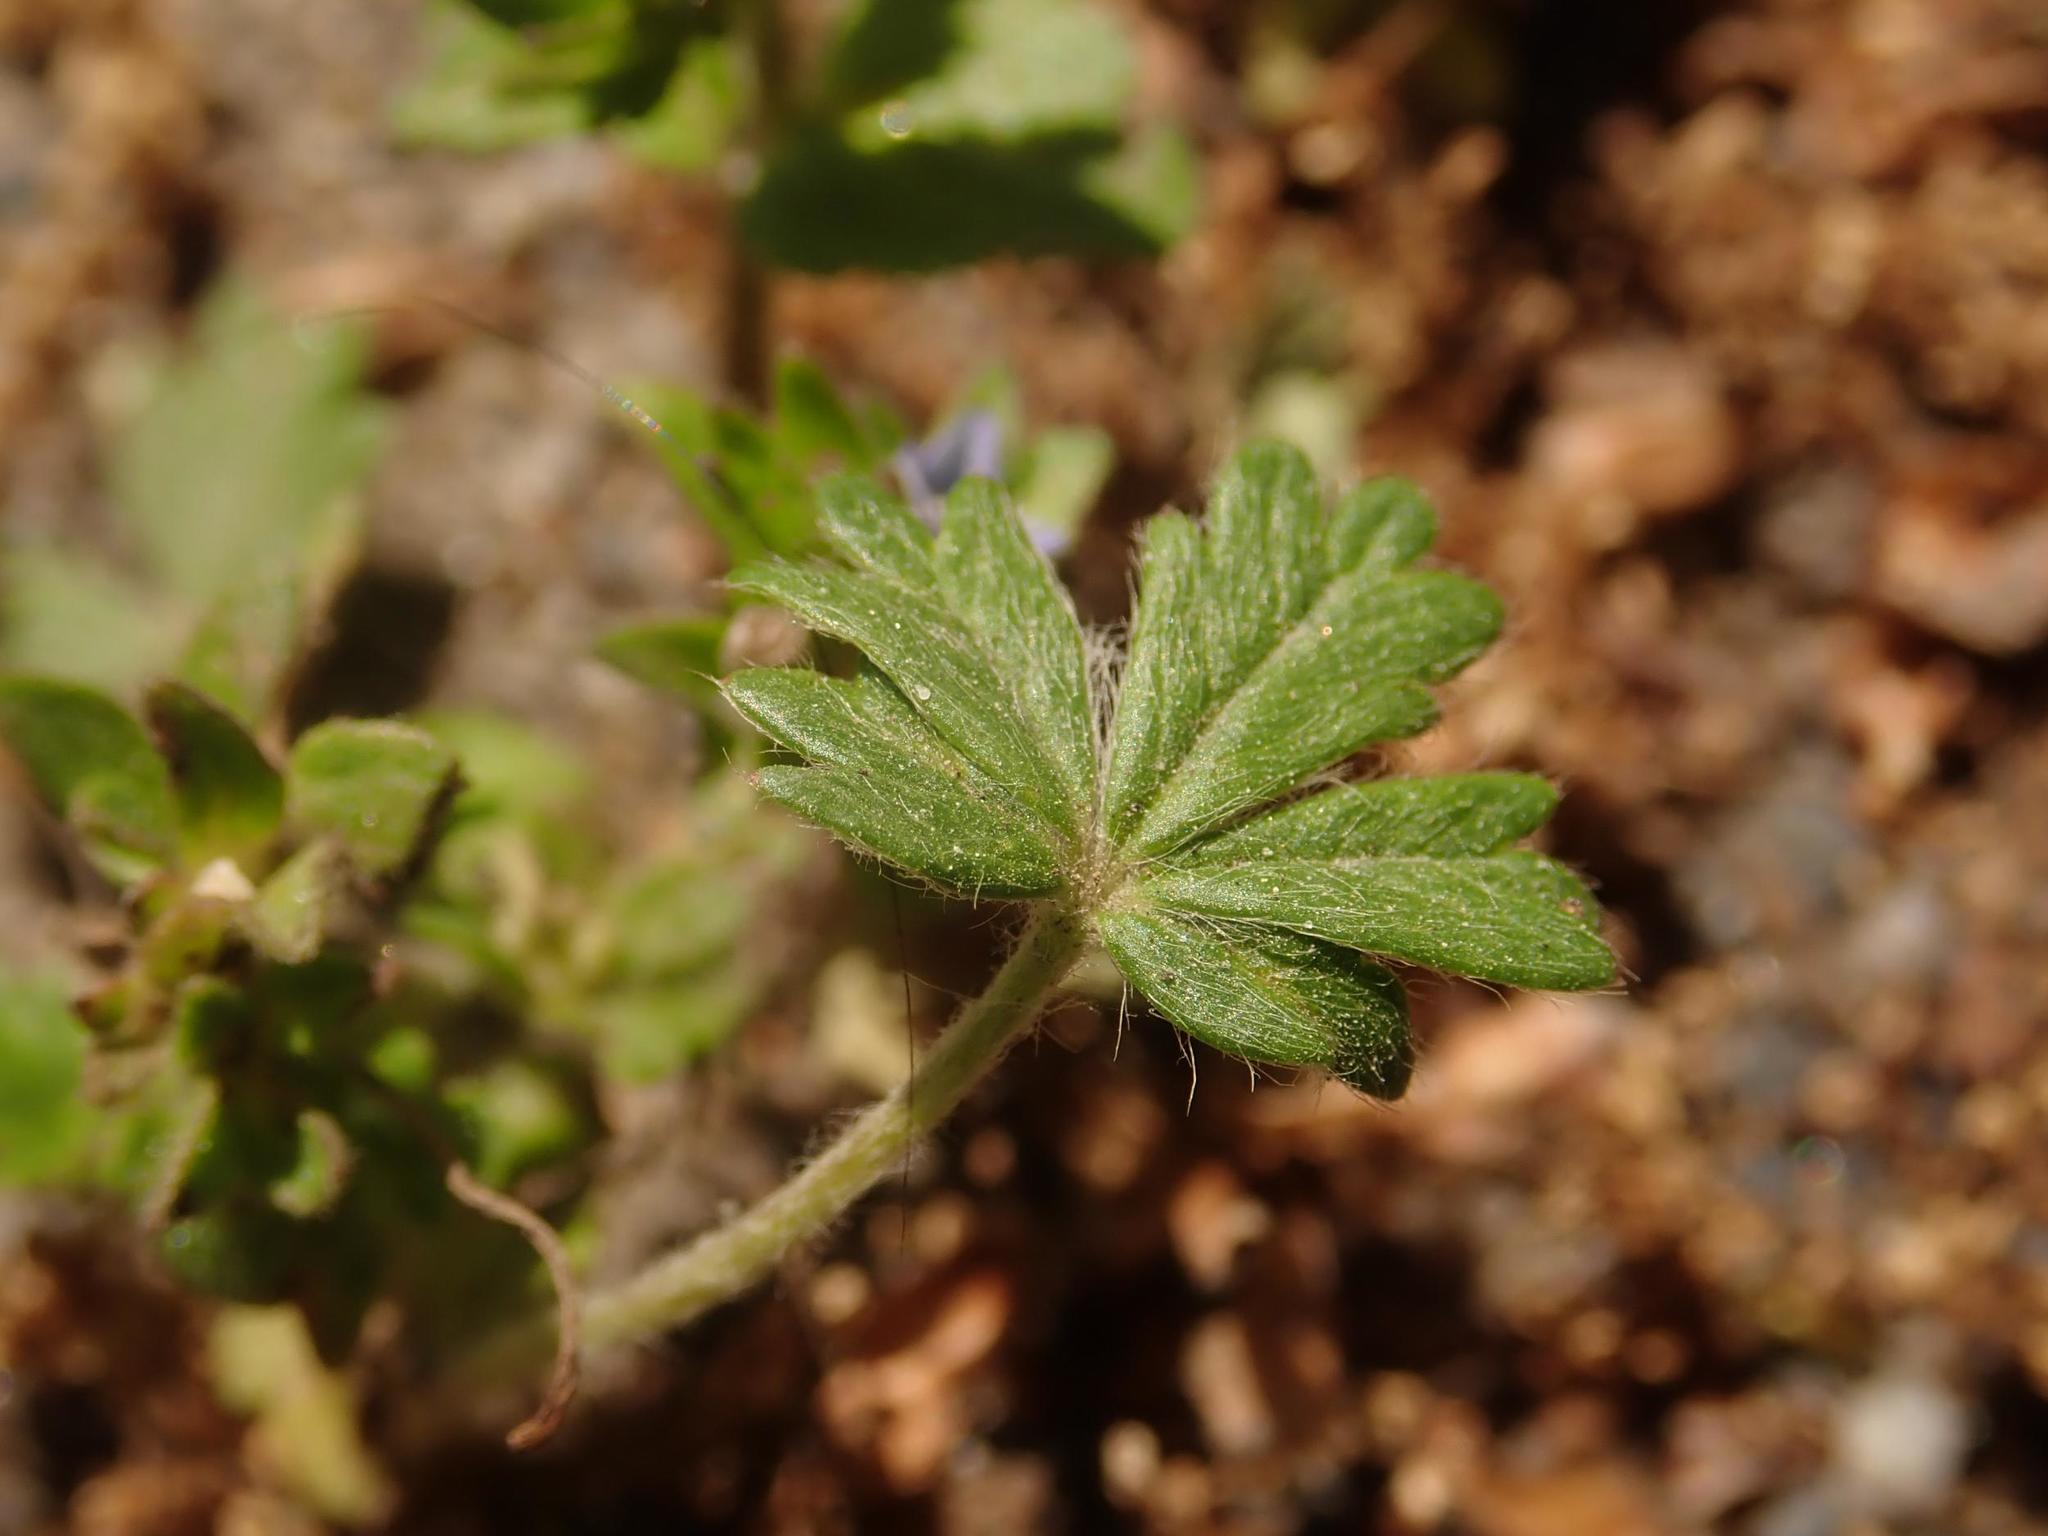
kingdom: Plantae
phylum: Tracheophyta
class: Magnoliopsida
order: Rosales
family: Rosaceae
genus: Potentilla
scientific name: Potentilla argentea
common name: Hoary cinquefoil
